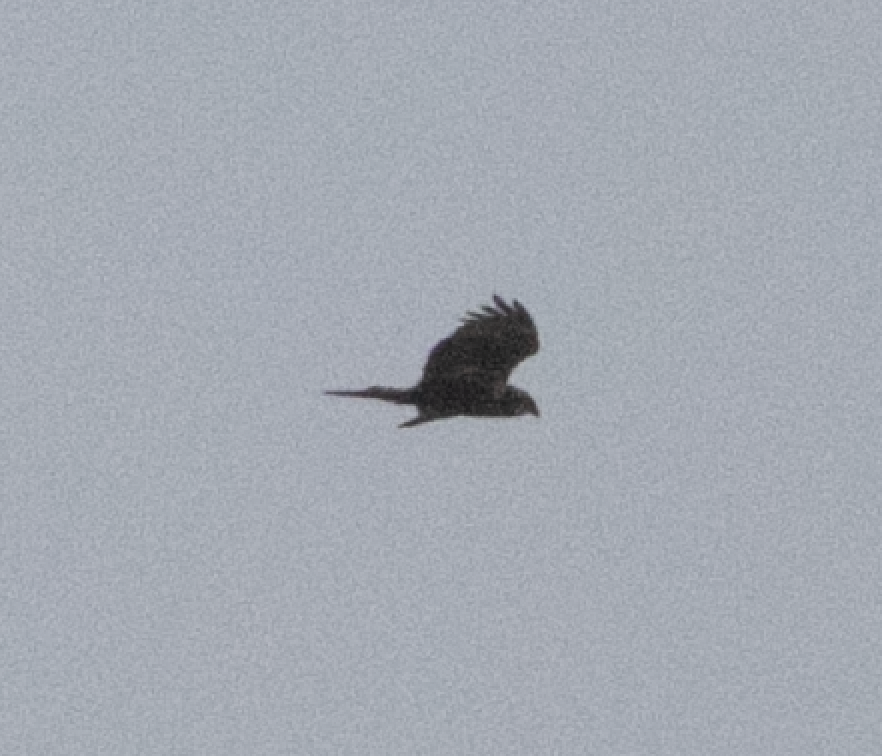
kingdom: Animalia
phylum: Chordata
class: Aves
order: Accipitriformes
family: Accipitridae
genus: Circus
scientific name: Circus aeruginosus
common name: Western marsh harrier
